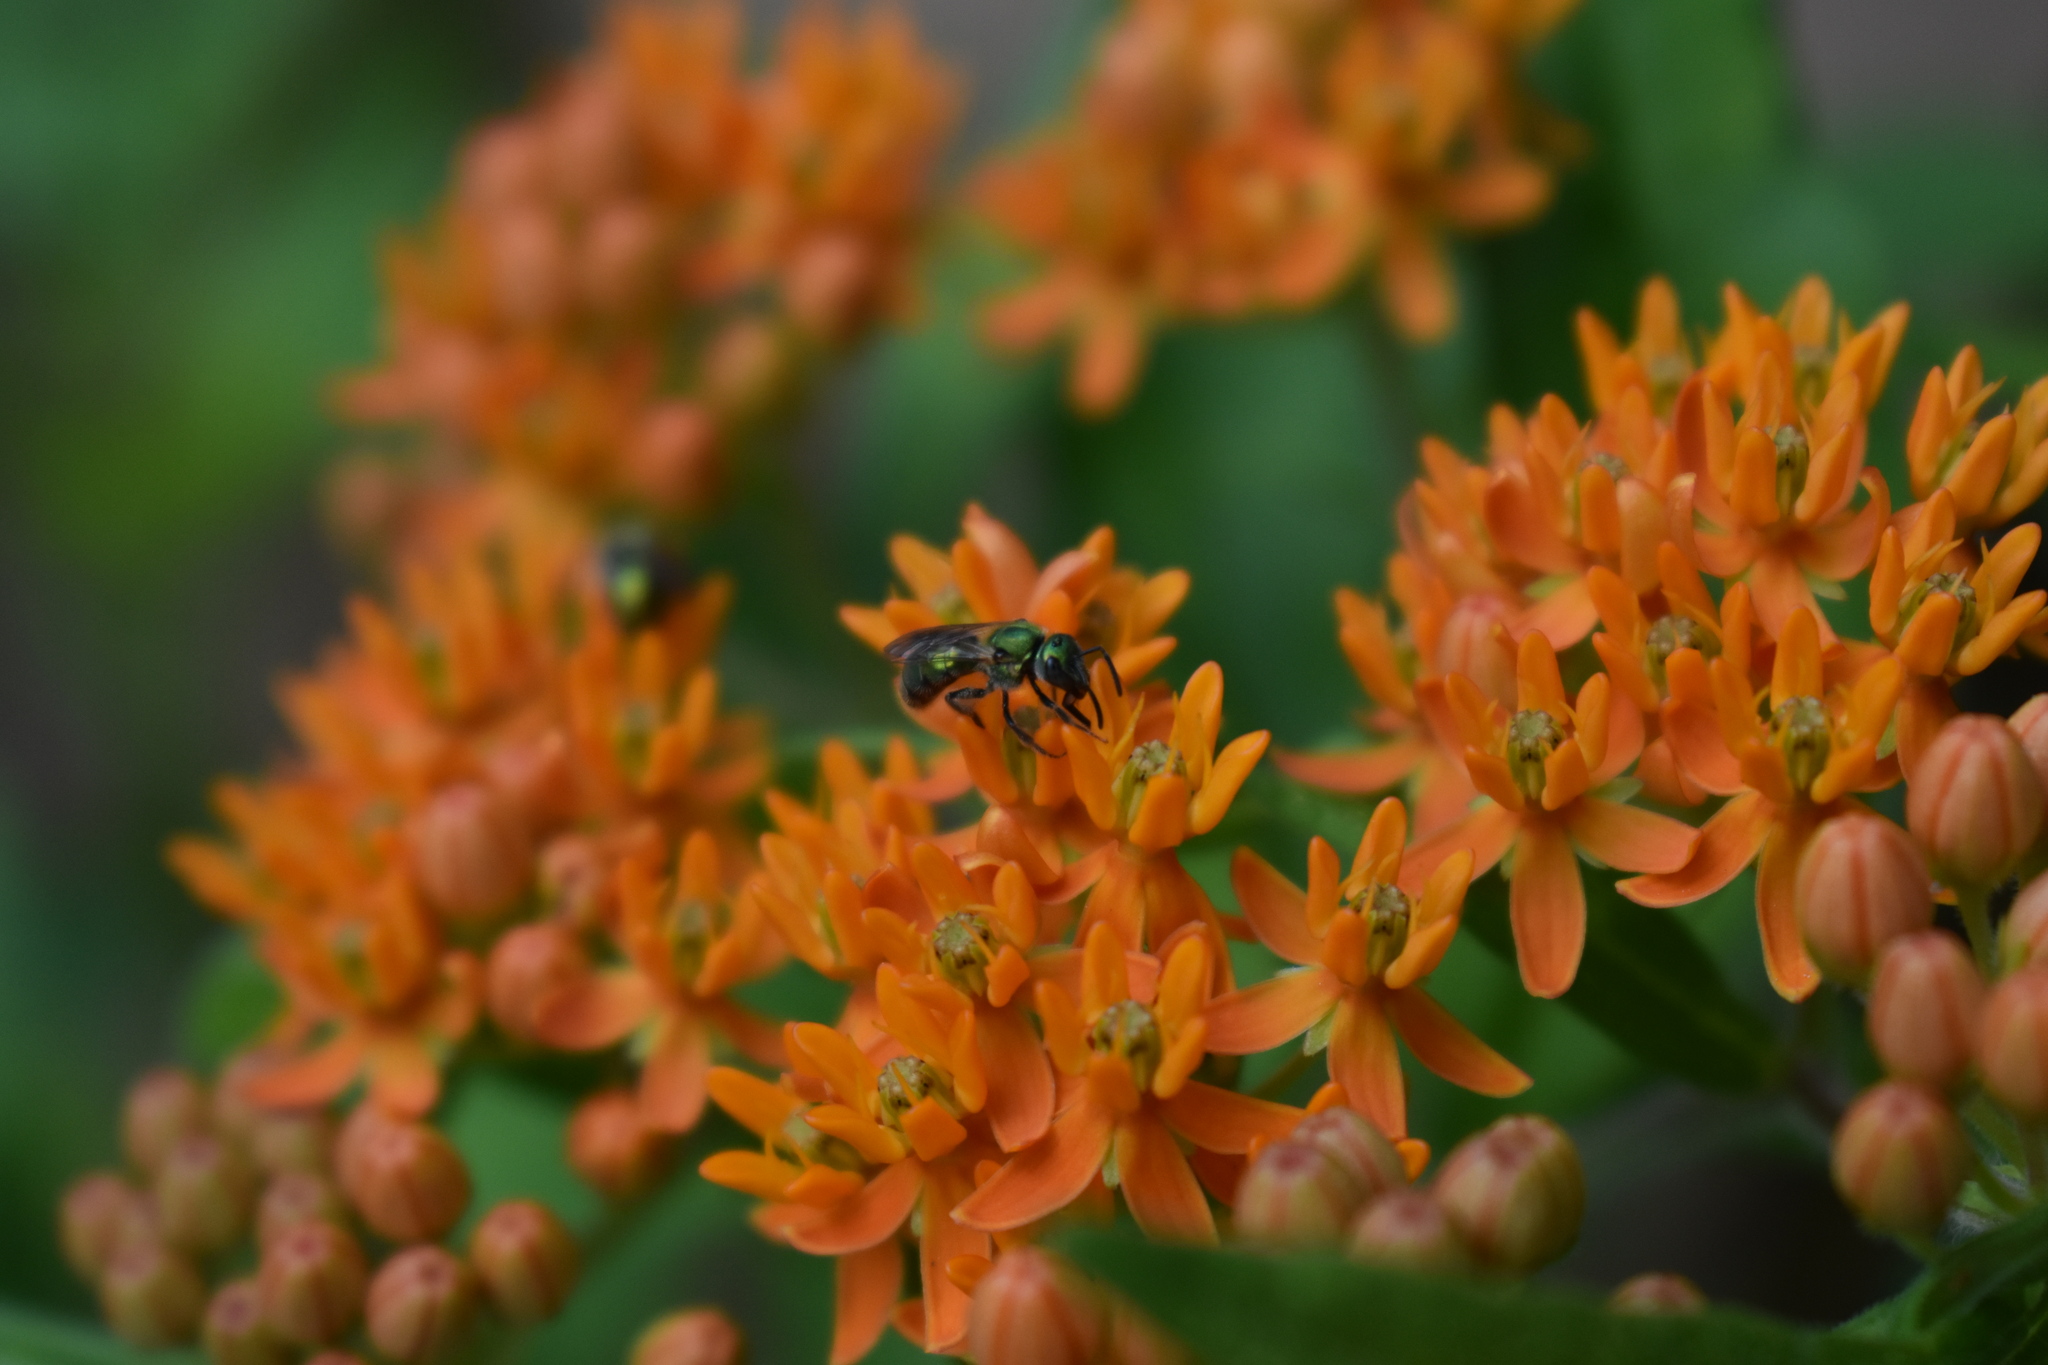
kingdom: Plantae
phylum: Tracheophyta
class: Magnoliopsida
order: Gentianales
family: Apocynaceae
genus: Asclepias
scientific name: Asclepias tuberosa
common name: Butterfly milkweed
